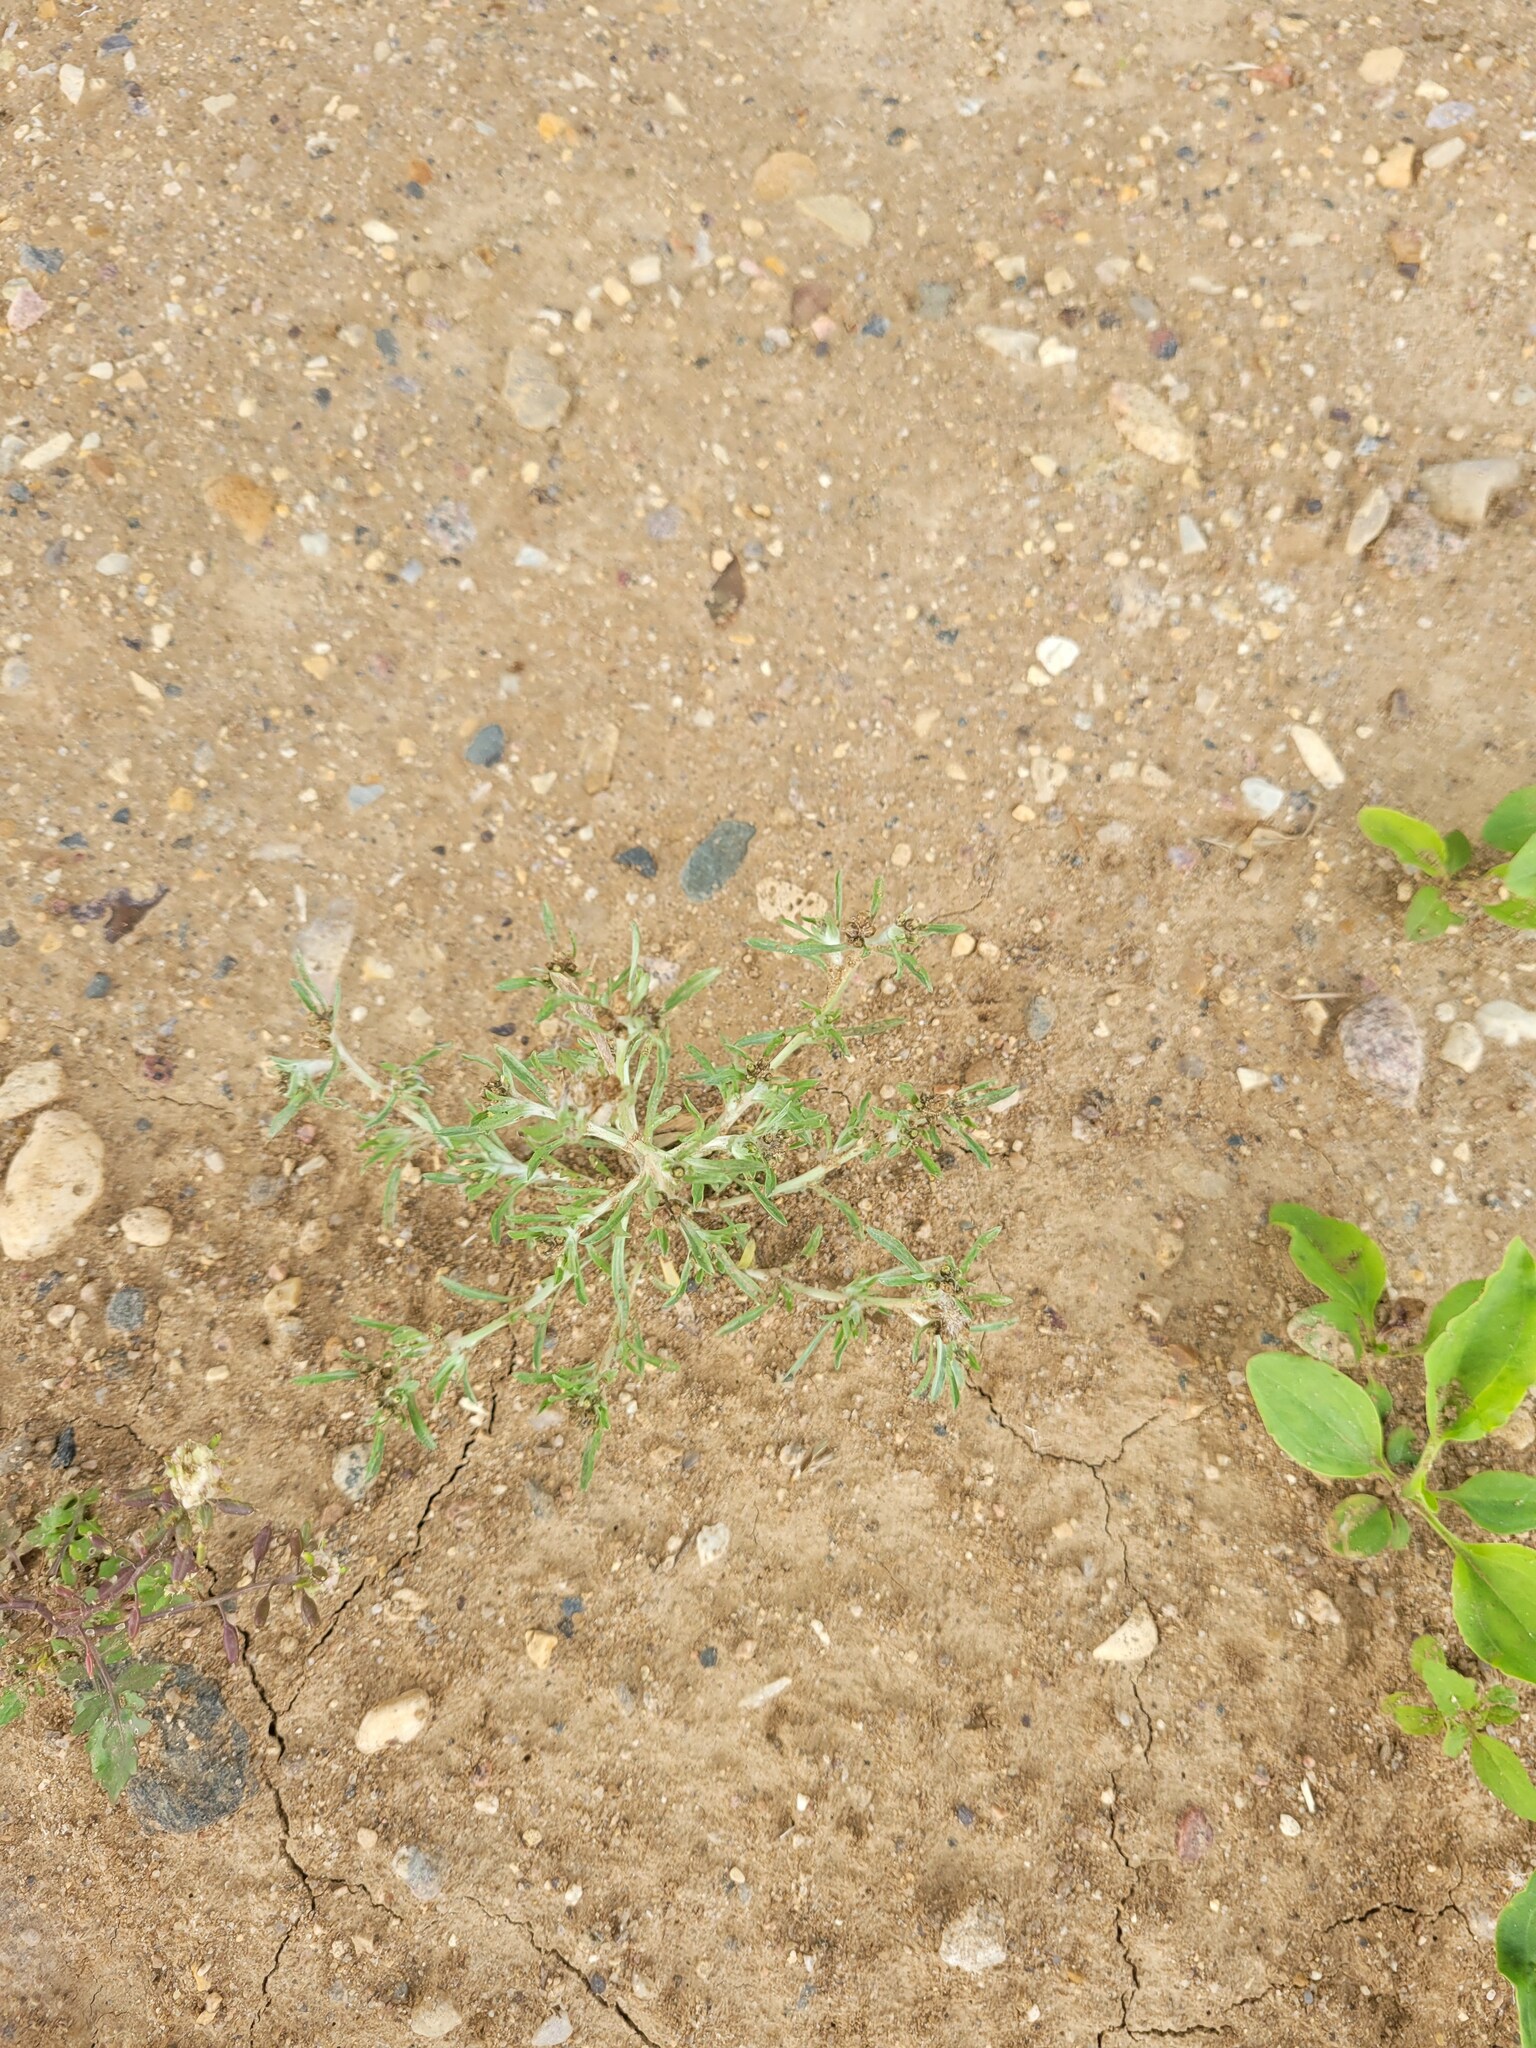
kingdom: Plantae
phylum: Tracheophyta
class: Magnoliopsida
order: Asterales
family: Asteraceae
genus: Gnaphalium
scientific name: Gnaphalium uliginosum
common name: Marsh cudweed
